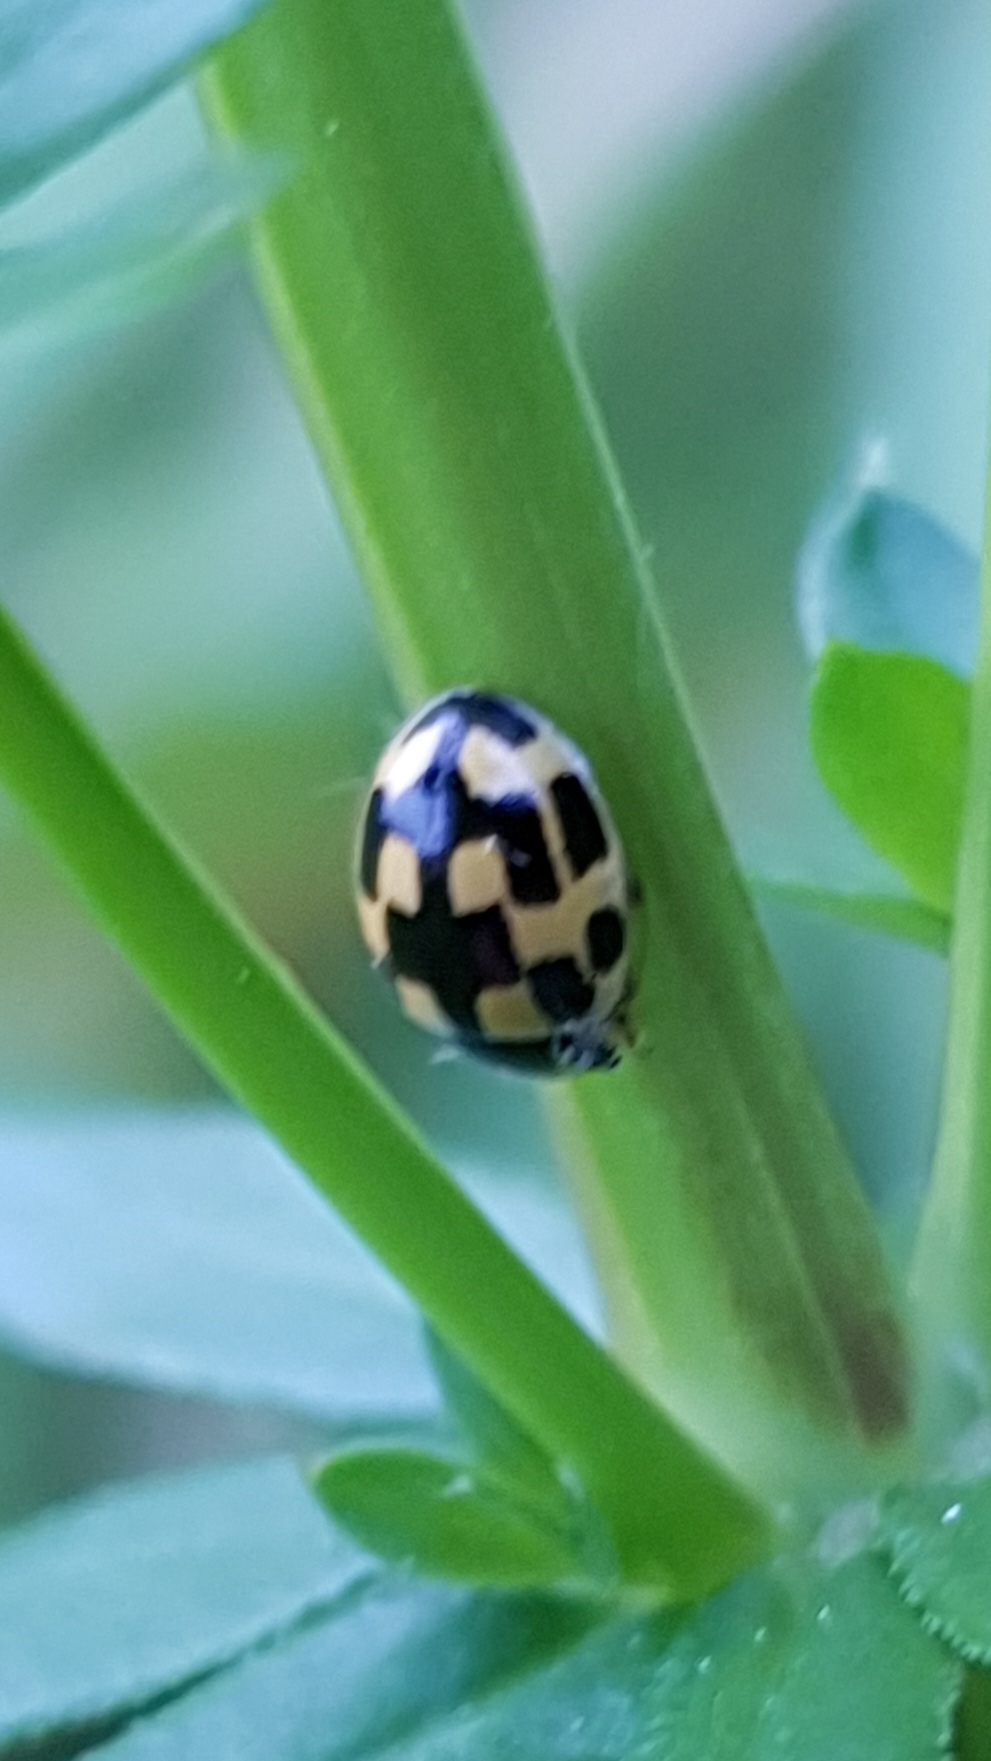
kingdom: Animalia
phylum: Arthropoda
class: Insecta
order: Coleoptera
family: Coccinellidae
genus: Propylaea
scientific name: Propylaea quatuordecimpunctata
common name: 14-spotted ladybird beetle
